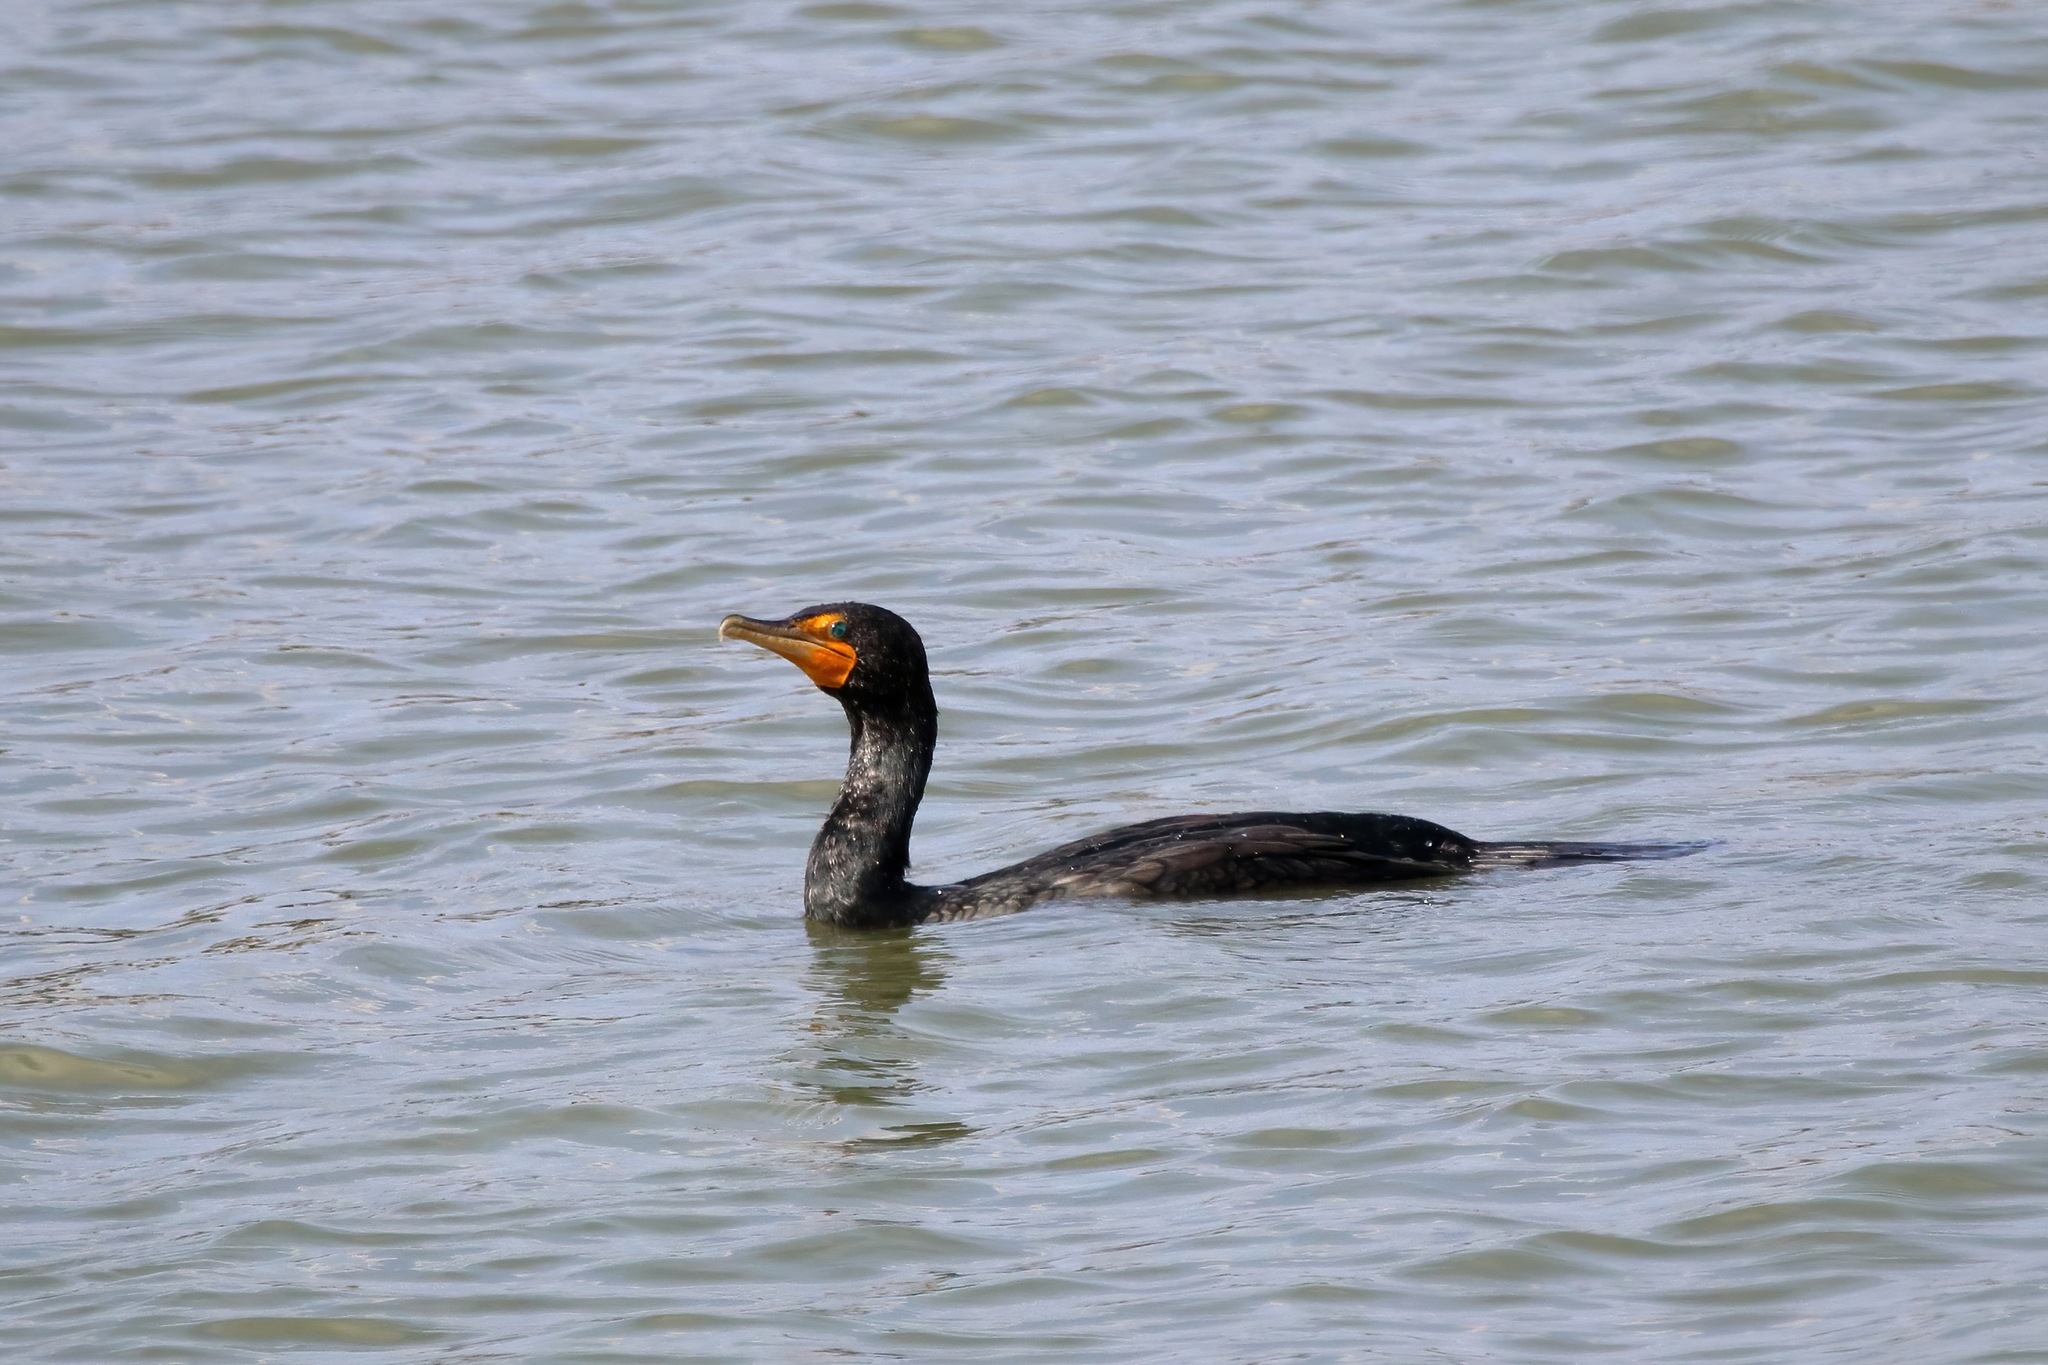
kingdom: Animalia
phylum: Chordata
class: Aves
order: Suliformes
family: Phalacrocoracidae
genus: Phalacrocorax
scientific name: Phalacrocorax auritus
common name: Double-crested cormorant
